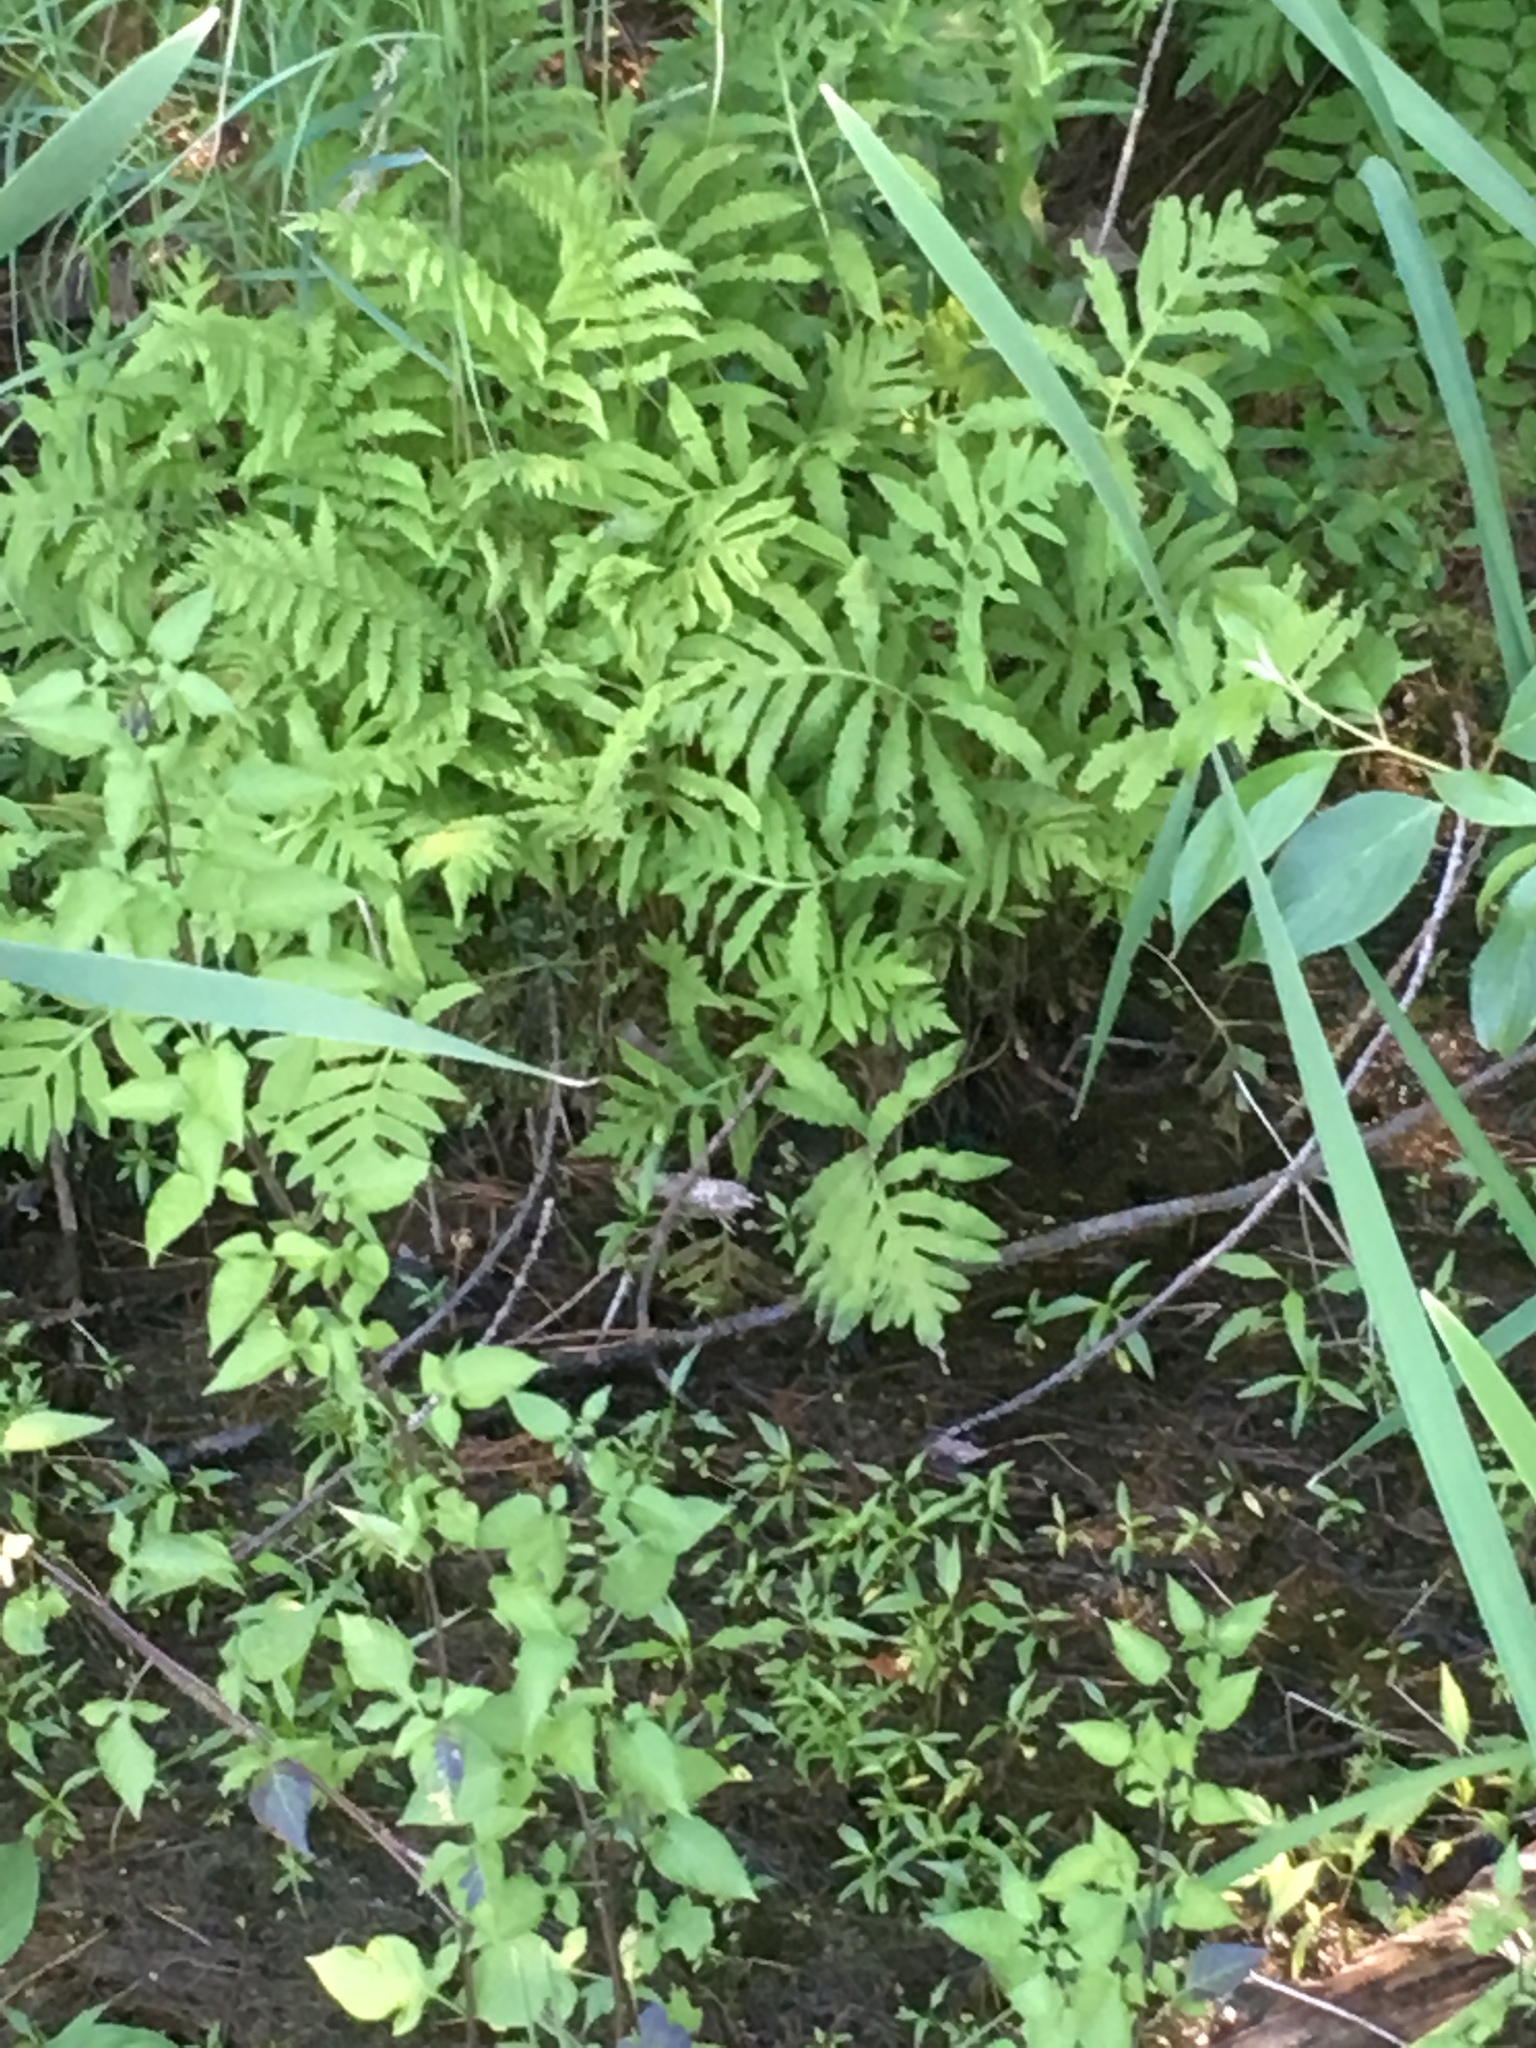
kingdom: Plantae
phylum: Tracheophyta
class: Polypodiopsida
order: Polypodiales
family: Onocleaceae
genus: Onoclea
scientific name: Onoclea sensibilis
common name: Sensitive fern
